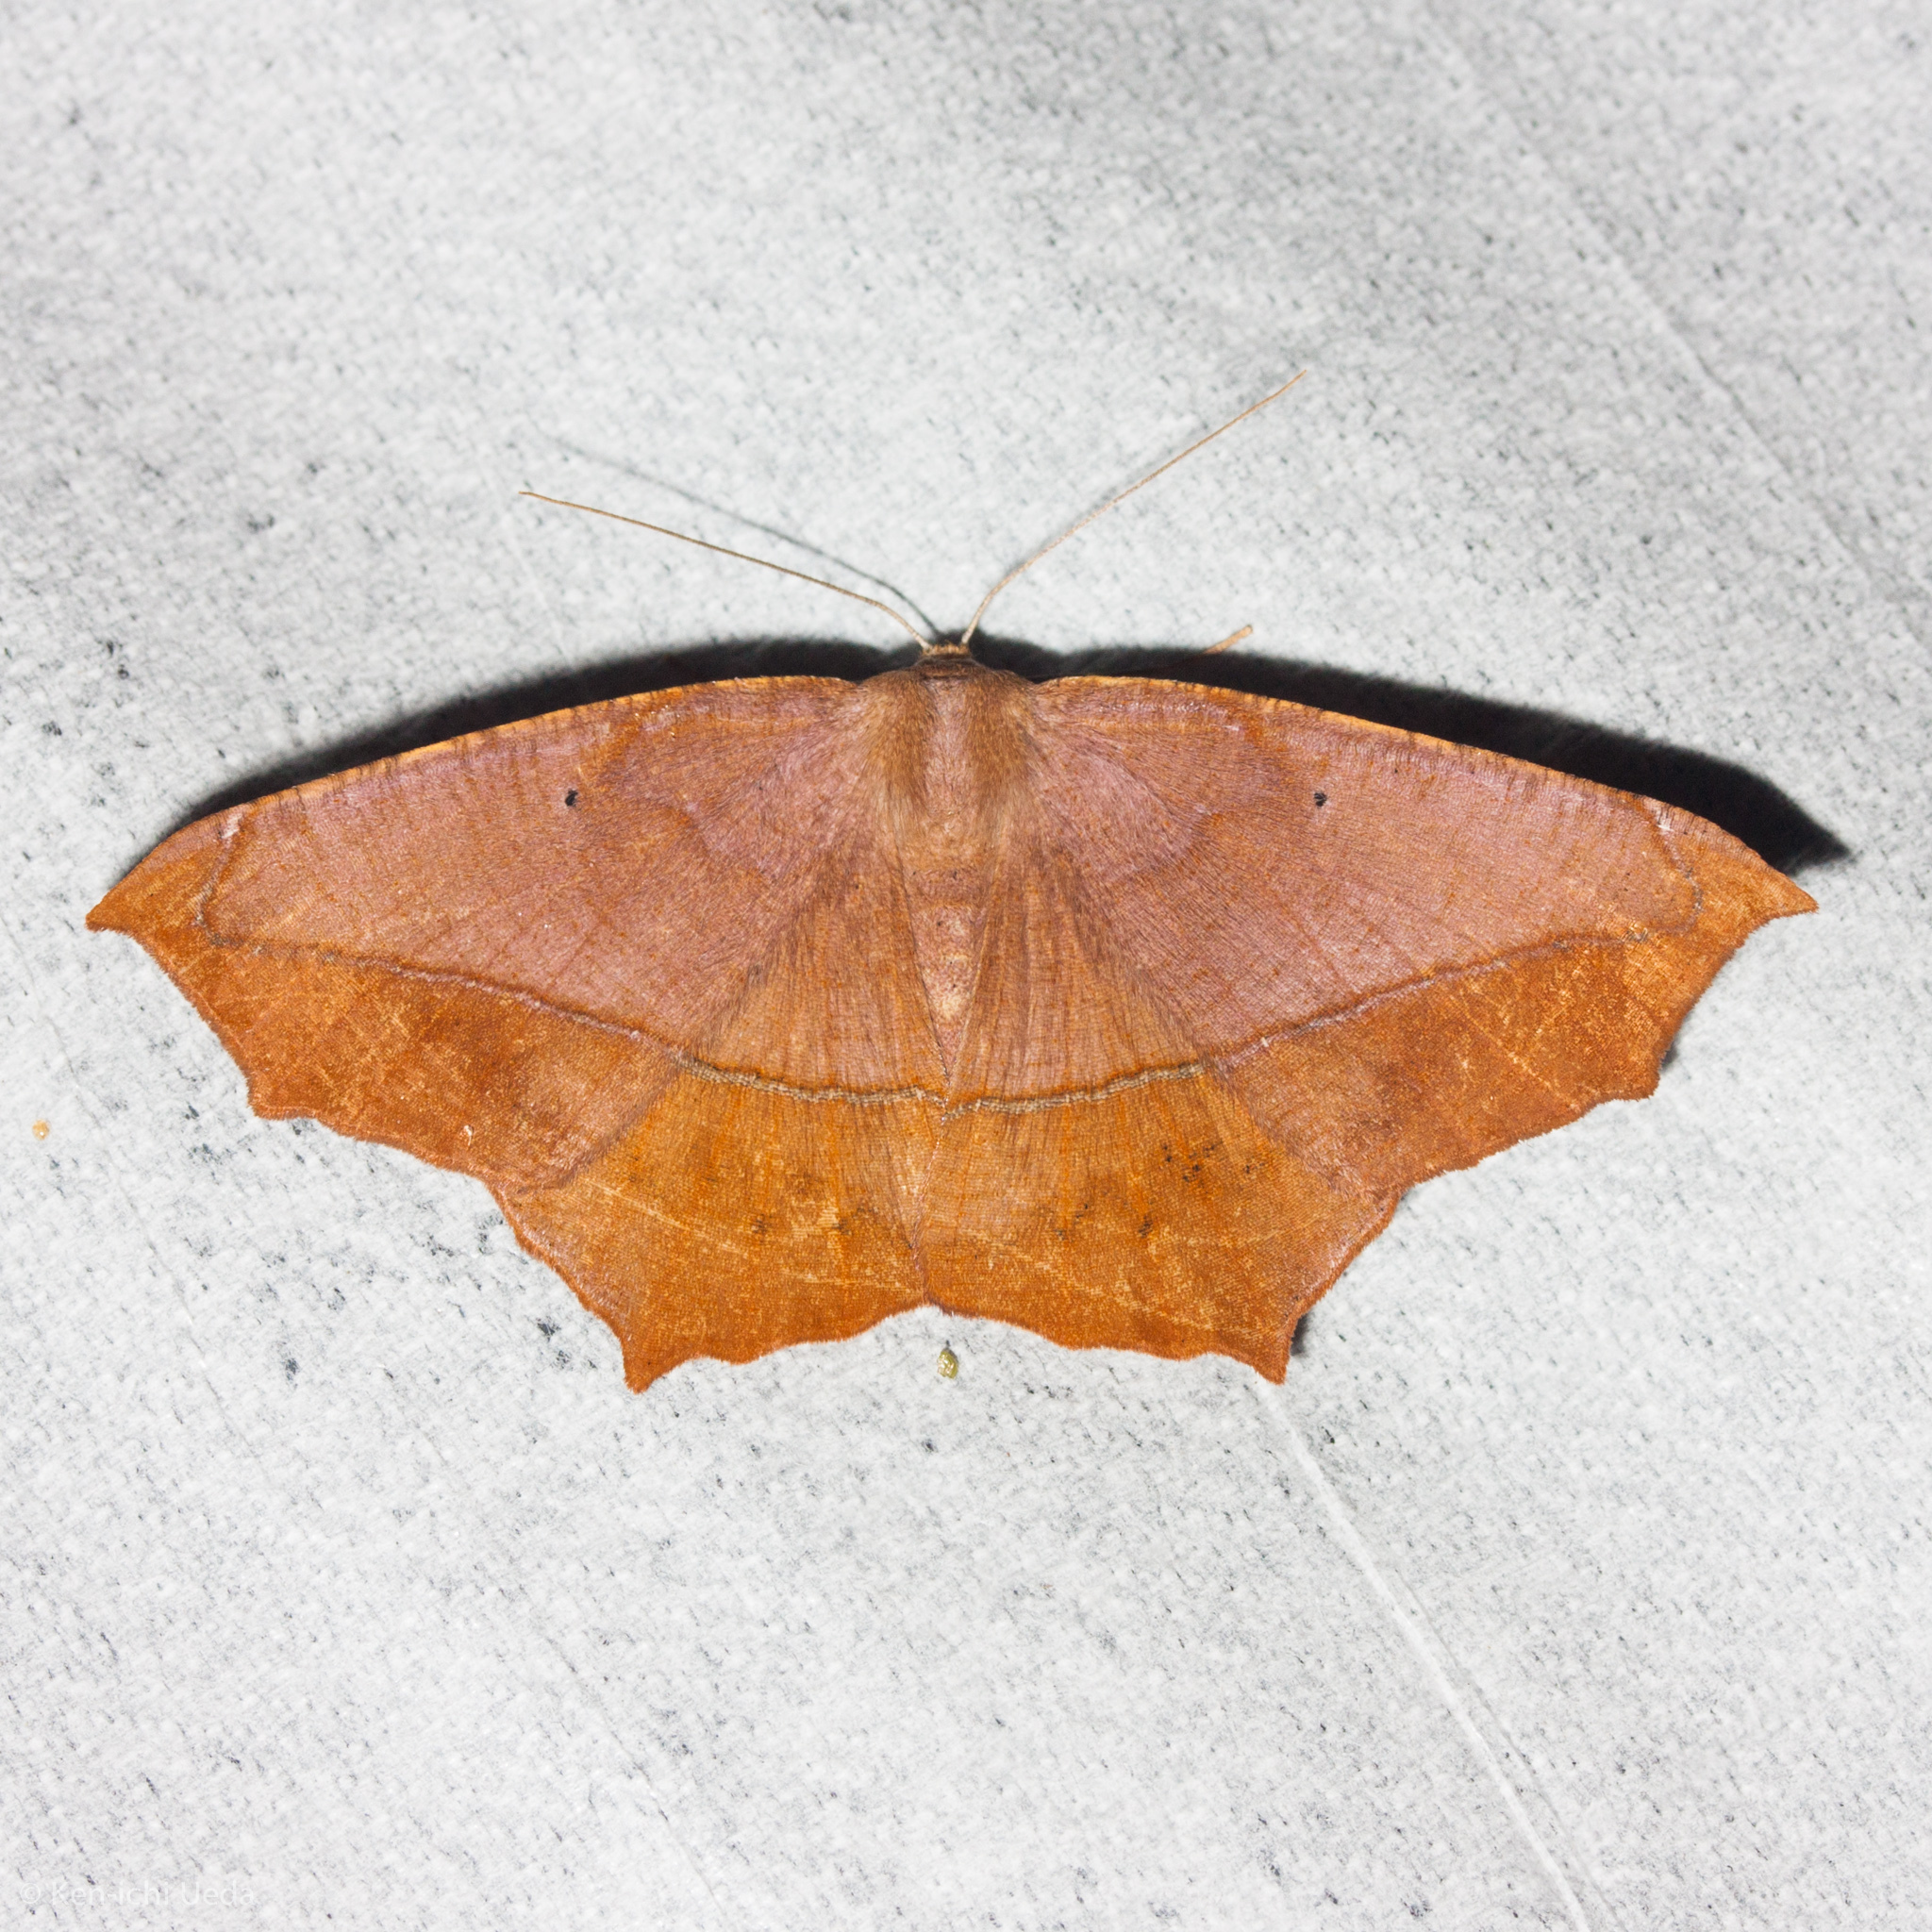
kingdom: Animalia
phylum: Arthropoda
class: Insecta
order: Lepidoptera
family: Geometridae
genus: Prochoerodes
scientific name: Prochoerodes lineola
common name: Large maple spanworm
